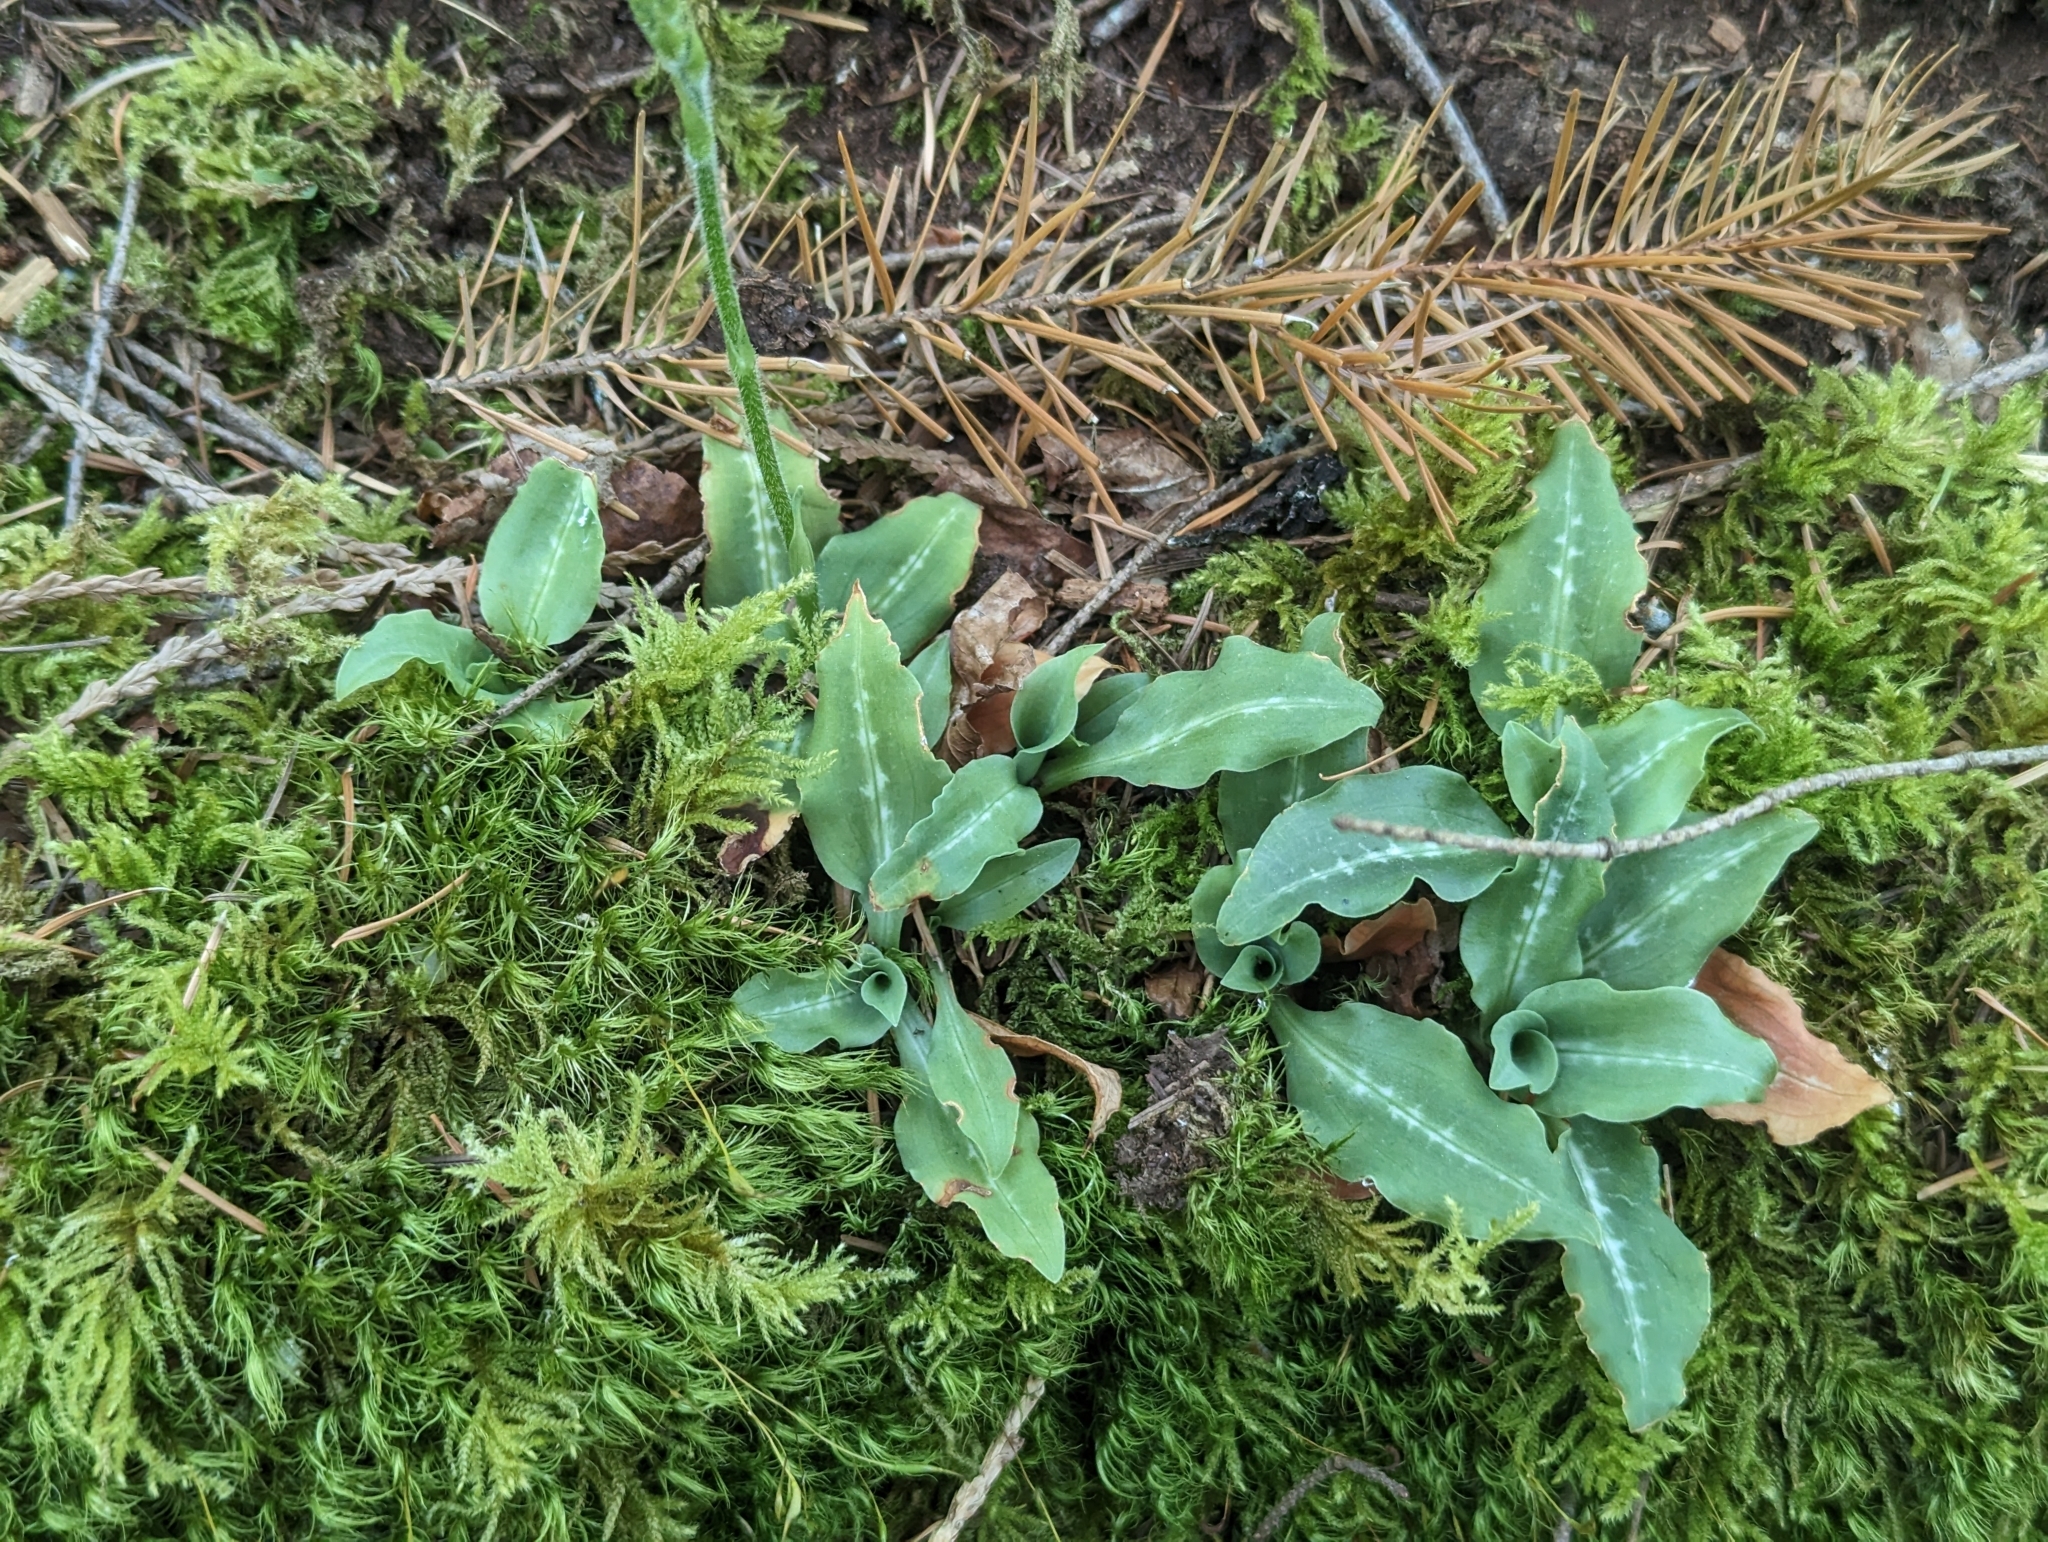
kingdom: Plantae
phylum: Tracheophyta
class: Liliopsida
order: Asparagales
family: Orchidaceae
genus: Goodyera
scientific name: Goodyera oblongifolia
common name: Giant rattlesnake-plantain
